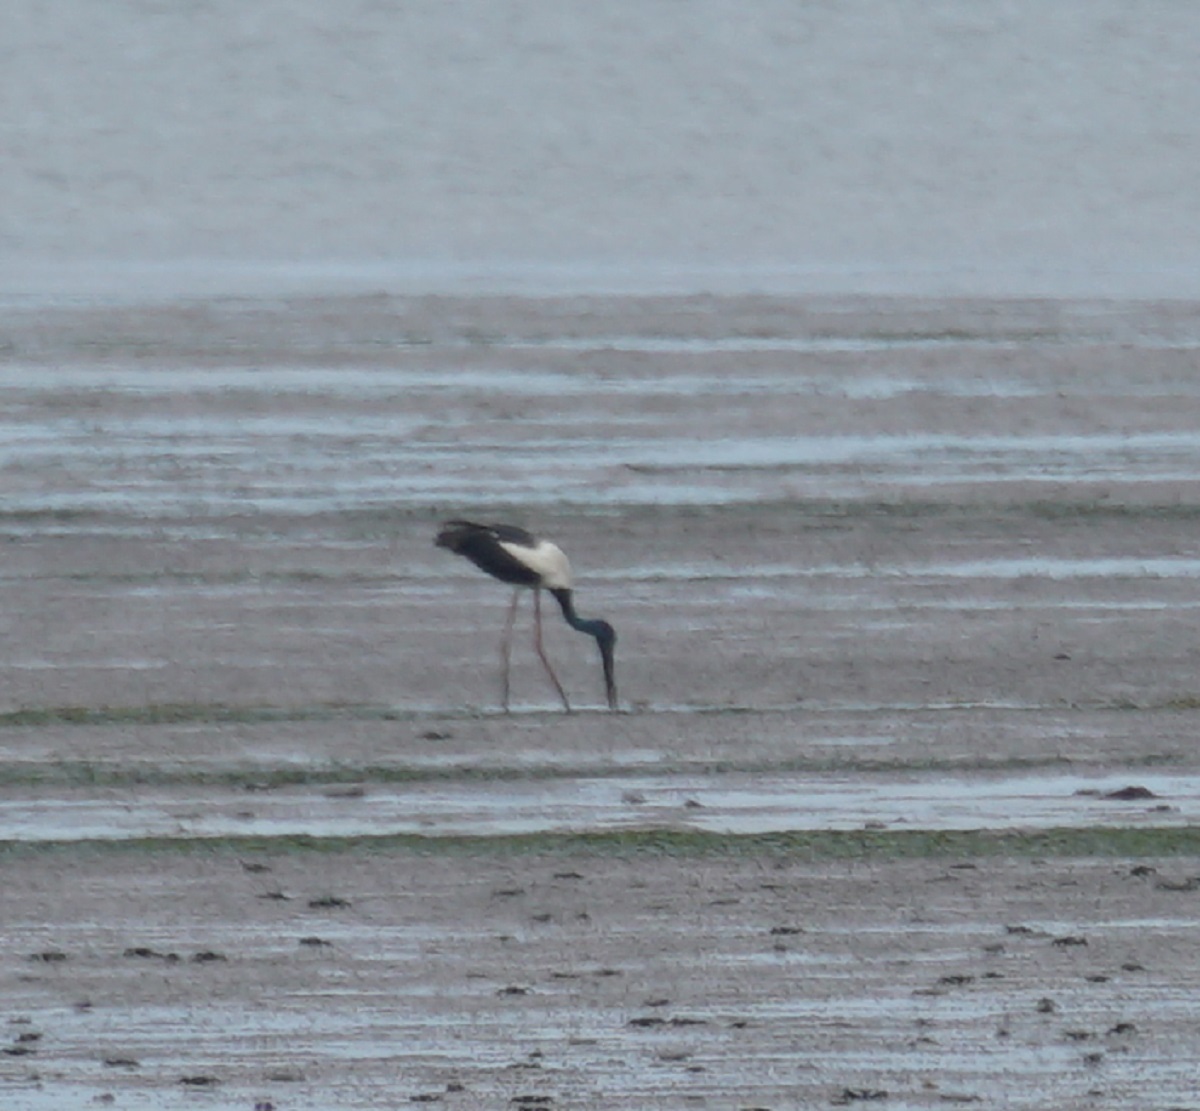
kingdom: Animalia
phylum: Chordata
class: Aves
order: Ciconiiformes
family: Ciconiidae
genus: Ephippiorhynchus
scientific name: Ephippiorhynchus asiaticus
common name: Black-necked stork
